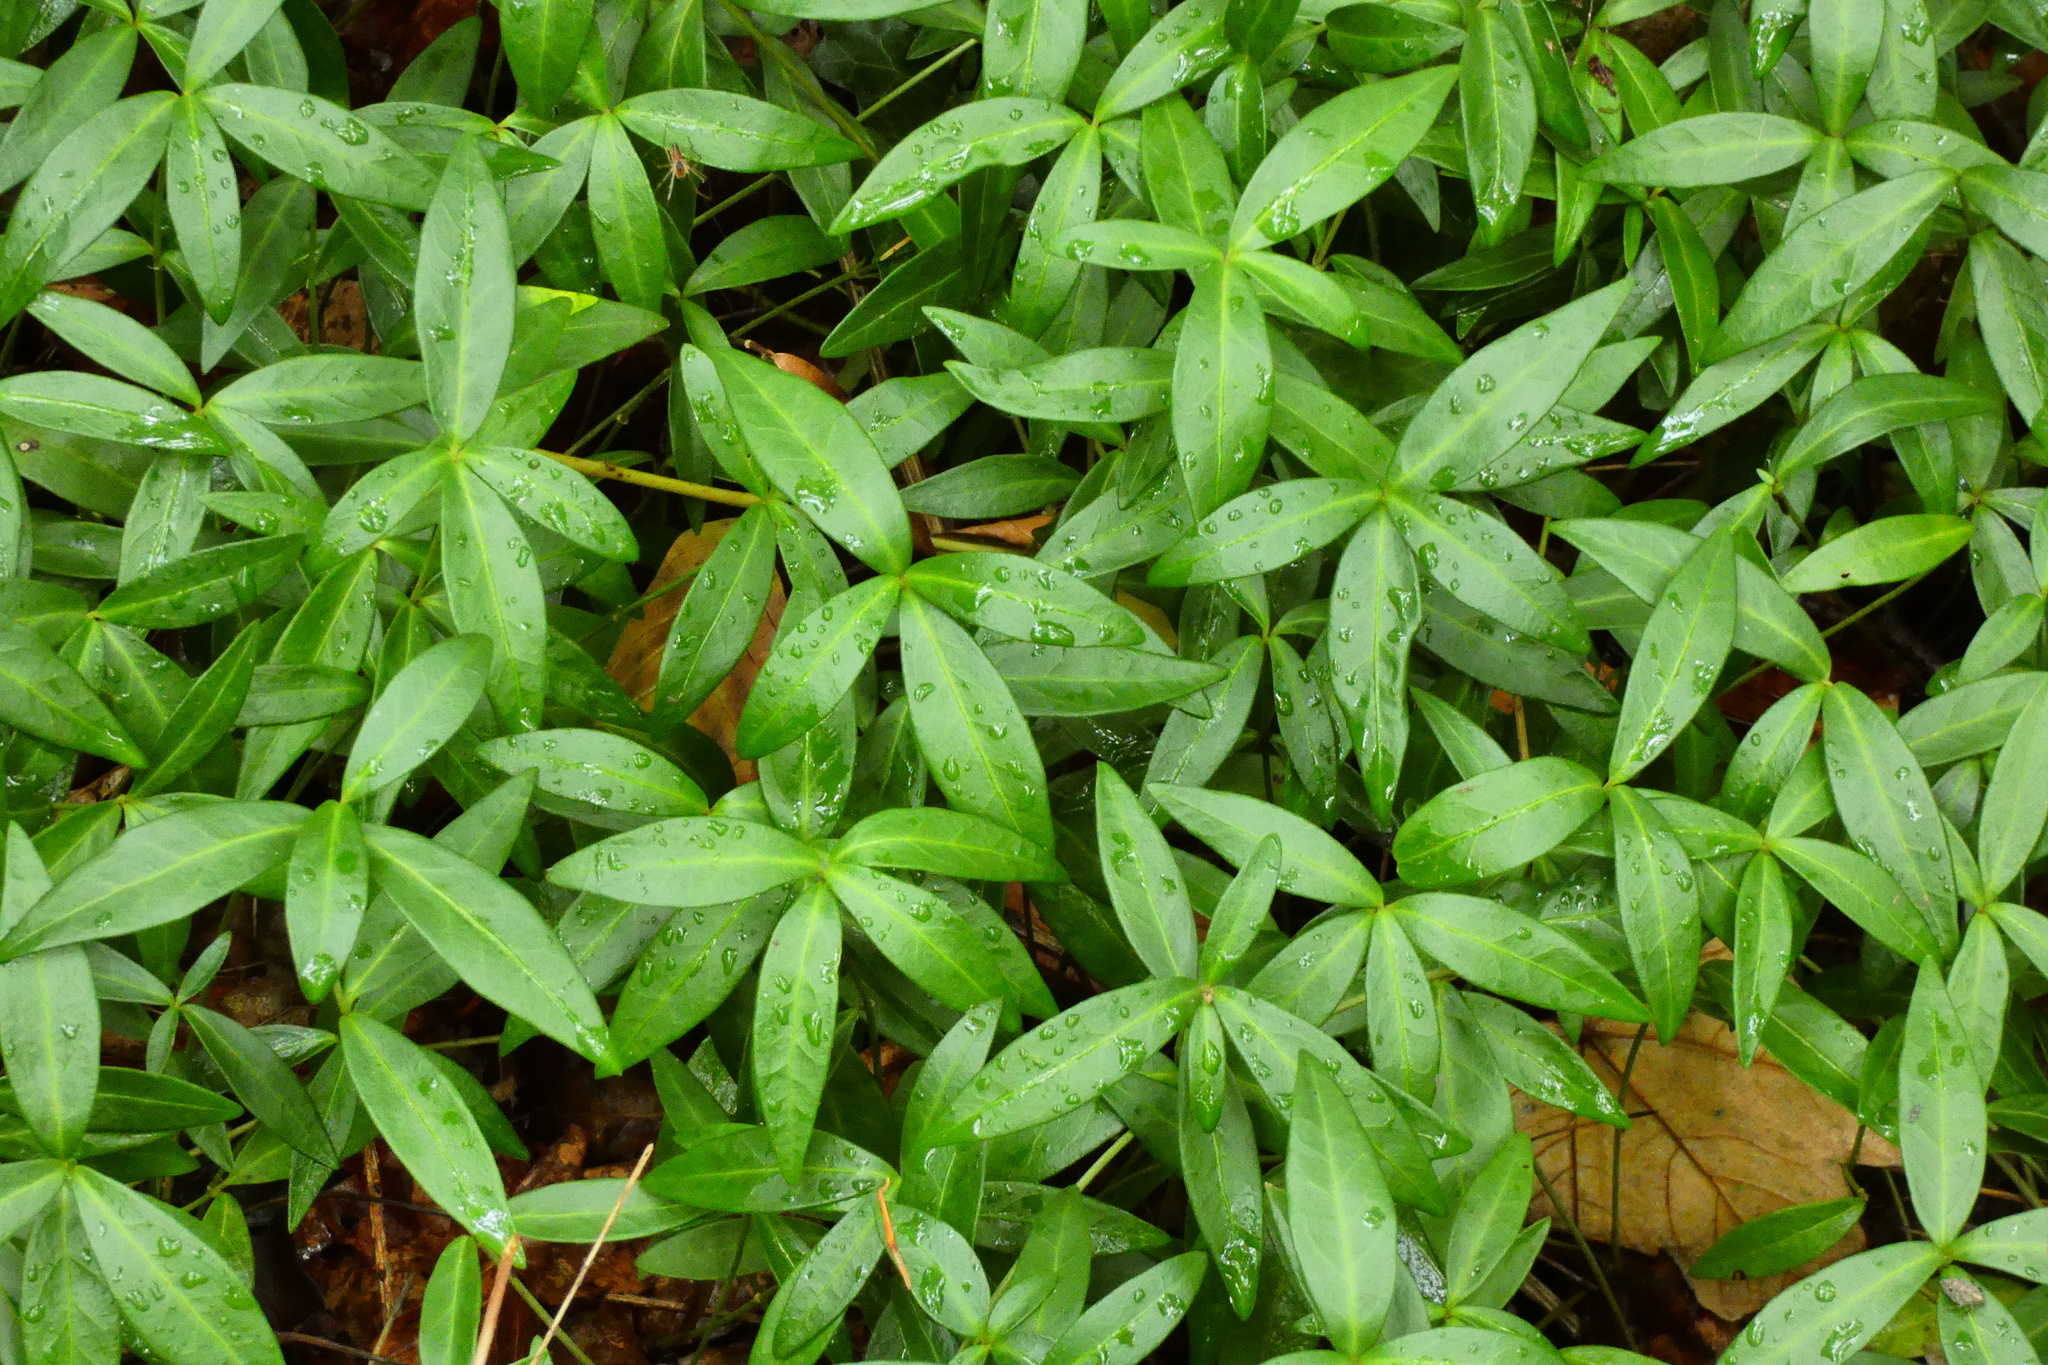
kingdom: Plantae
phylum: Tracheophyta
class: Magnoliopsida
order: Gentianales
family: Apocynaceae
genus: Vinca
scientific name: Vinca minor
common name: Lesser periwinkle
